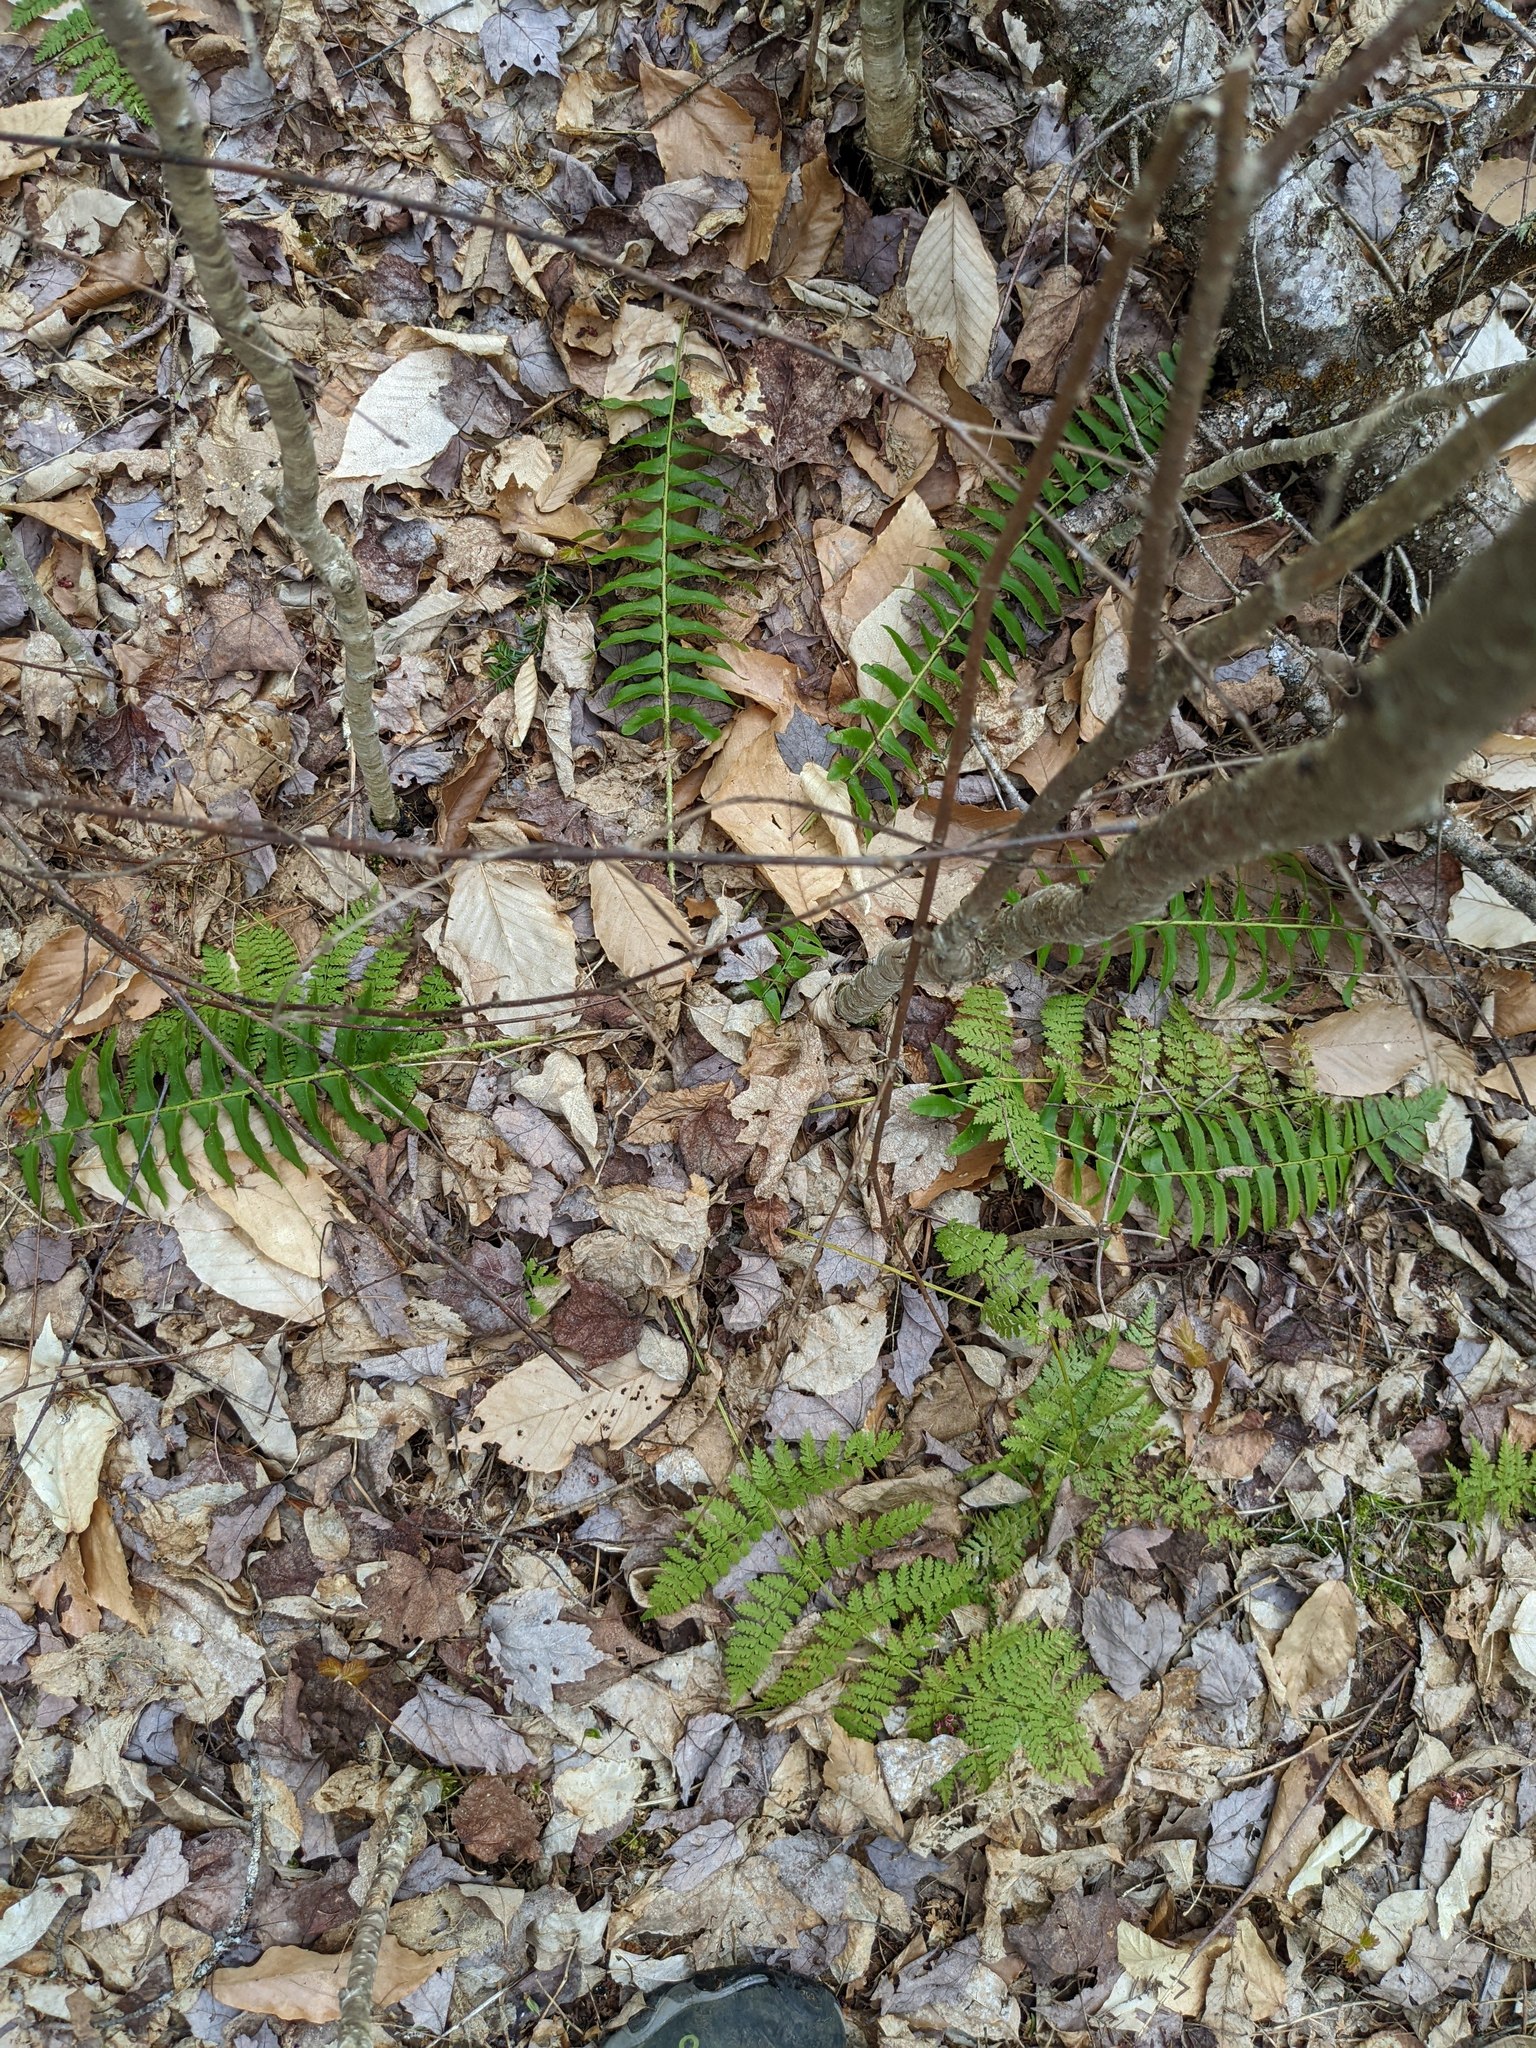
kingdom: Plantae
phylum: Tracheophyta
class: Polypodiopsida
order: Polypodiales
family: Dryopteridaceae
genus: Polystichum
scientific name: Polystichum acrostichoides
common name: Christmas fern
